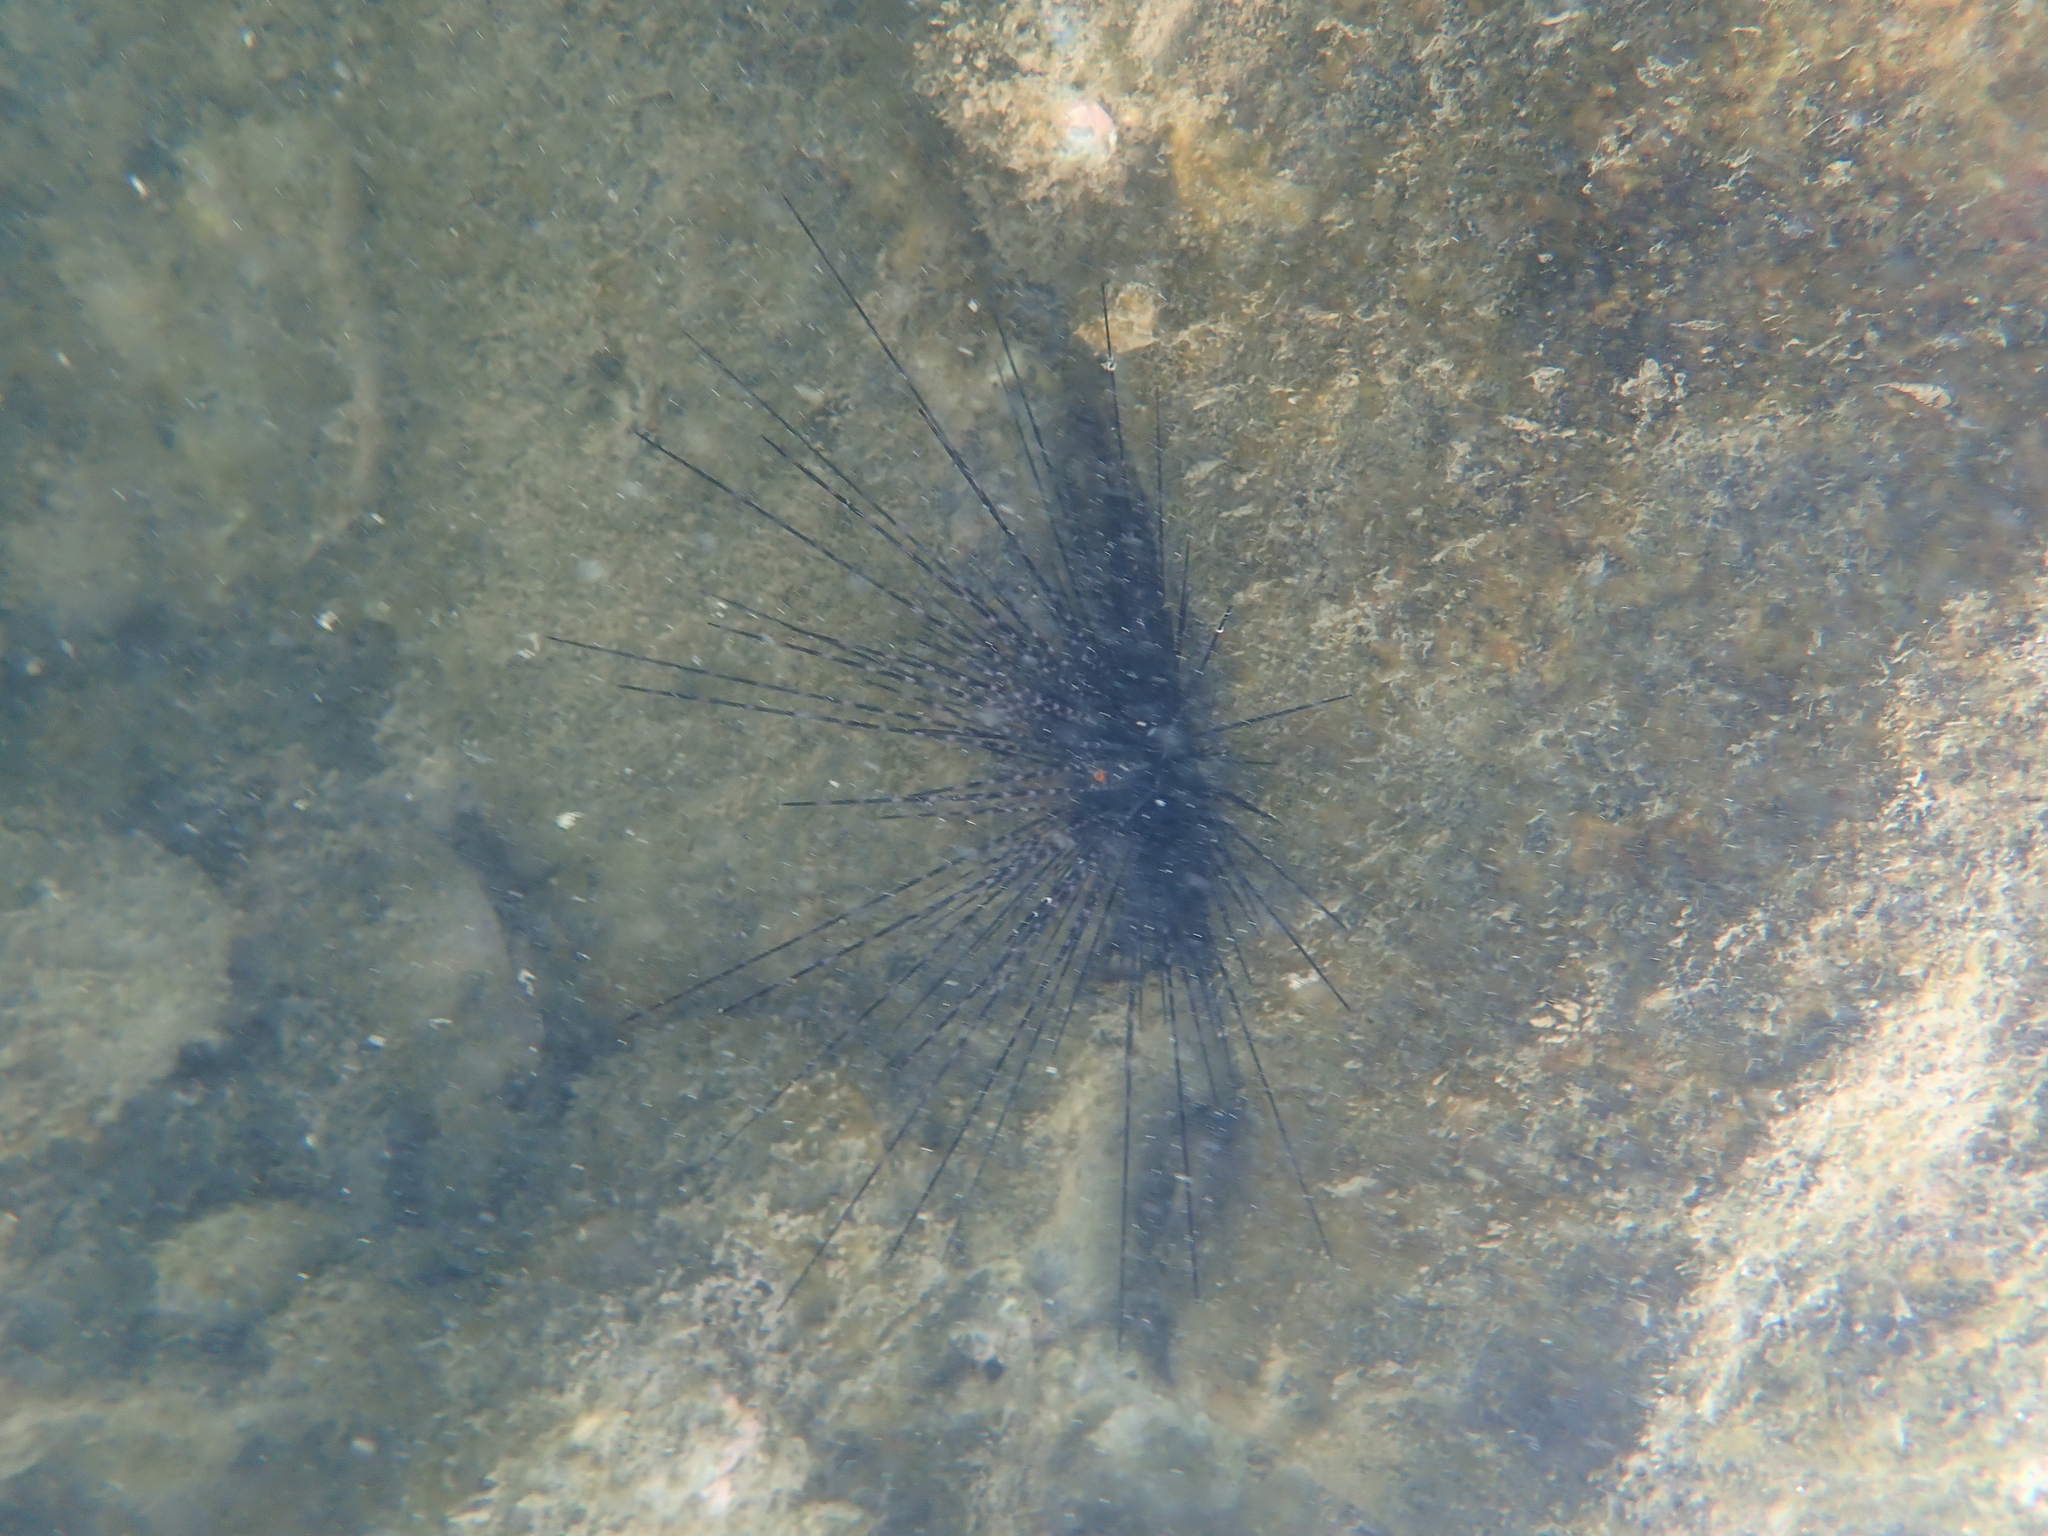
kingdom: Animalia
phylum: Echinodermata
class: Echinoidea
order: Diadematoida
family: Diadematidae
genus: Diadema
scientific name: Diadema setosum
